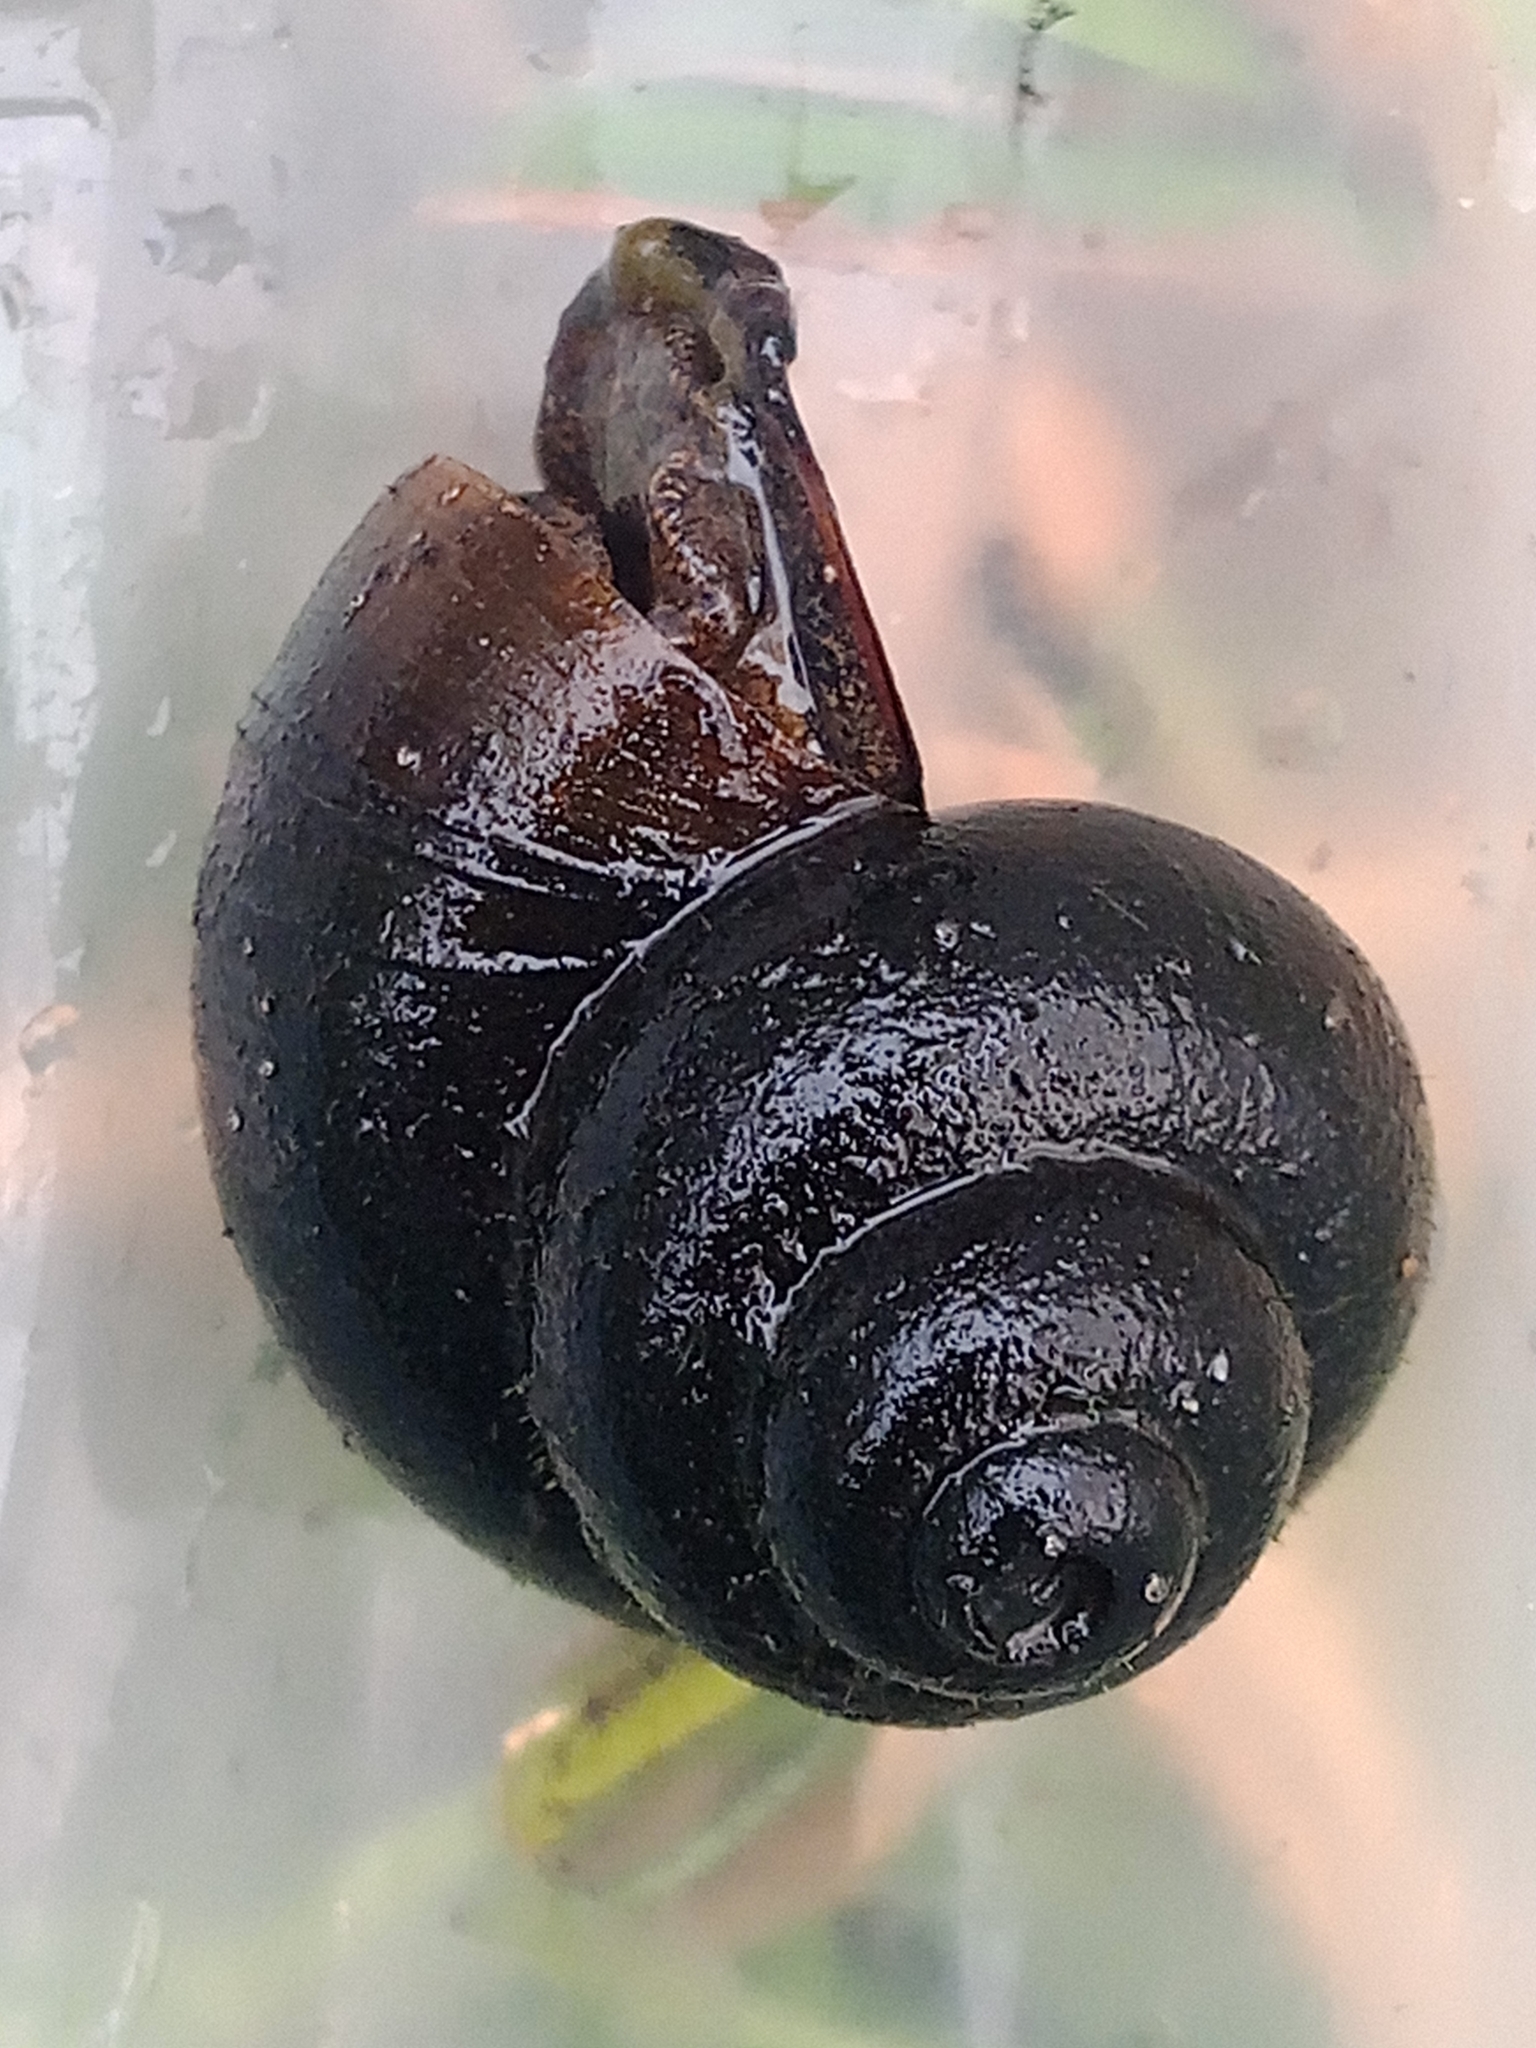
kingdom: Animalia
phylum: Mollusca
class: Gastropoda
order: Architaenioglossa
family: Viviparidae
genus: Viviparus
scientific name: Viviparus contectus
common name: Lister's river snail
